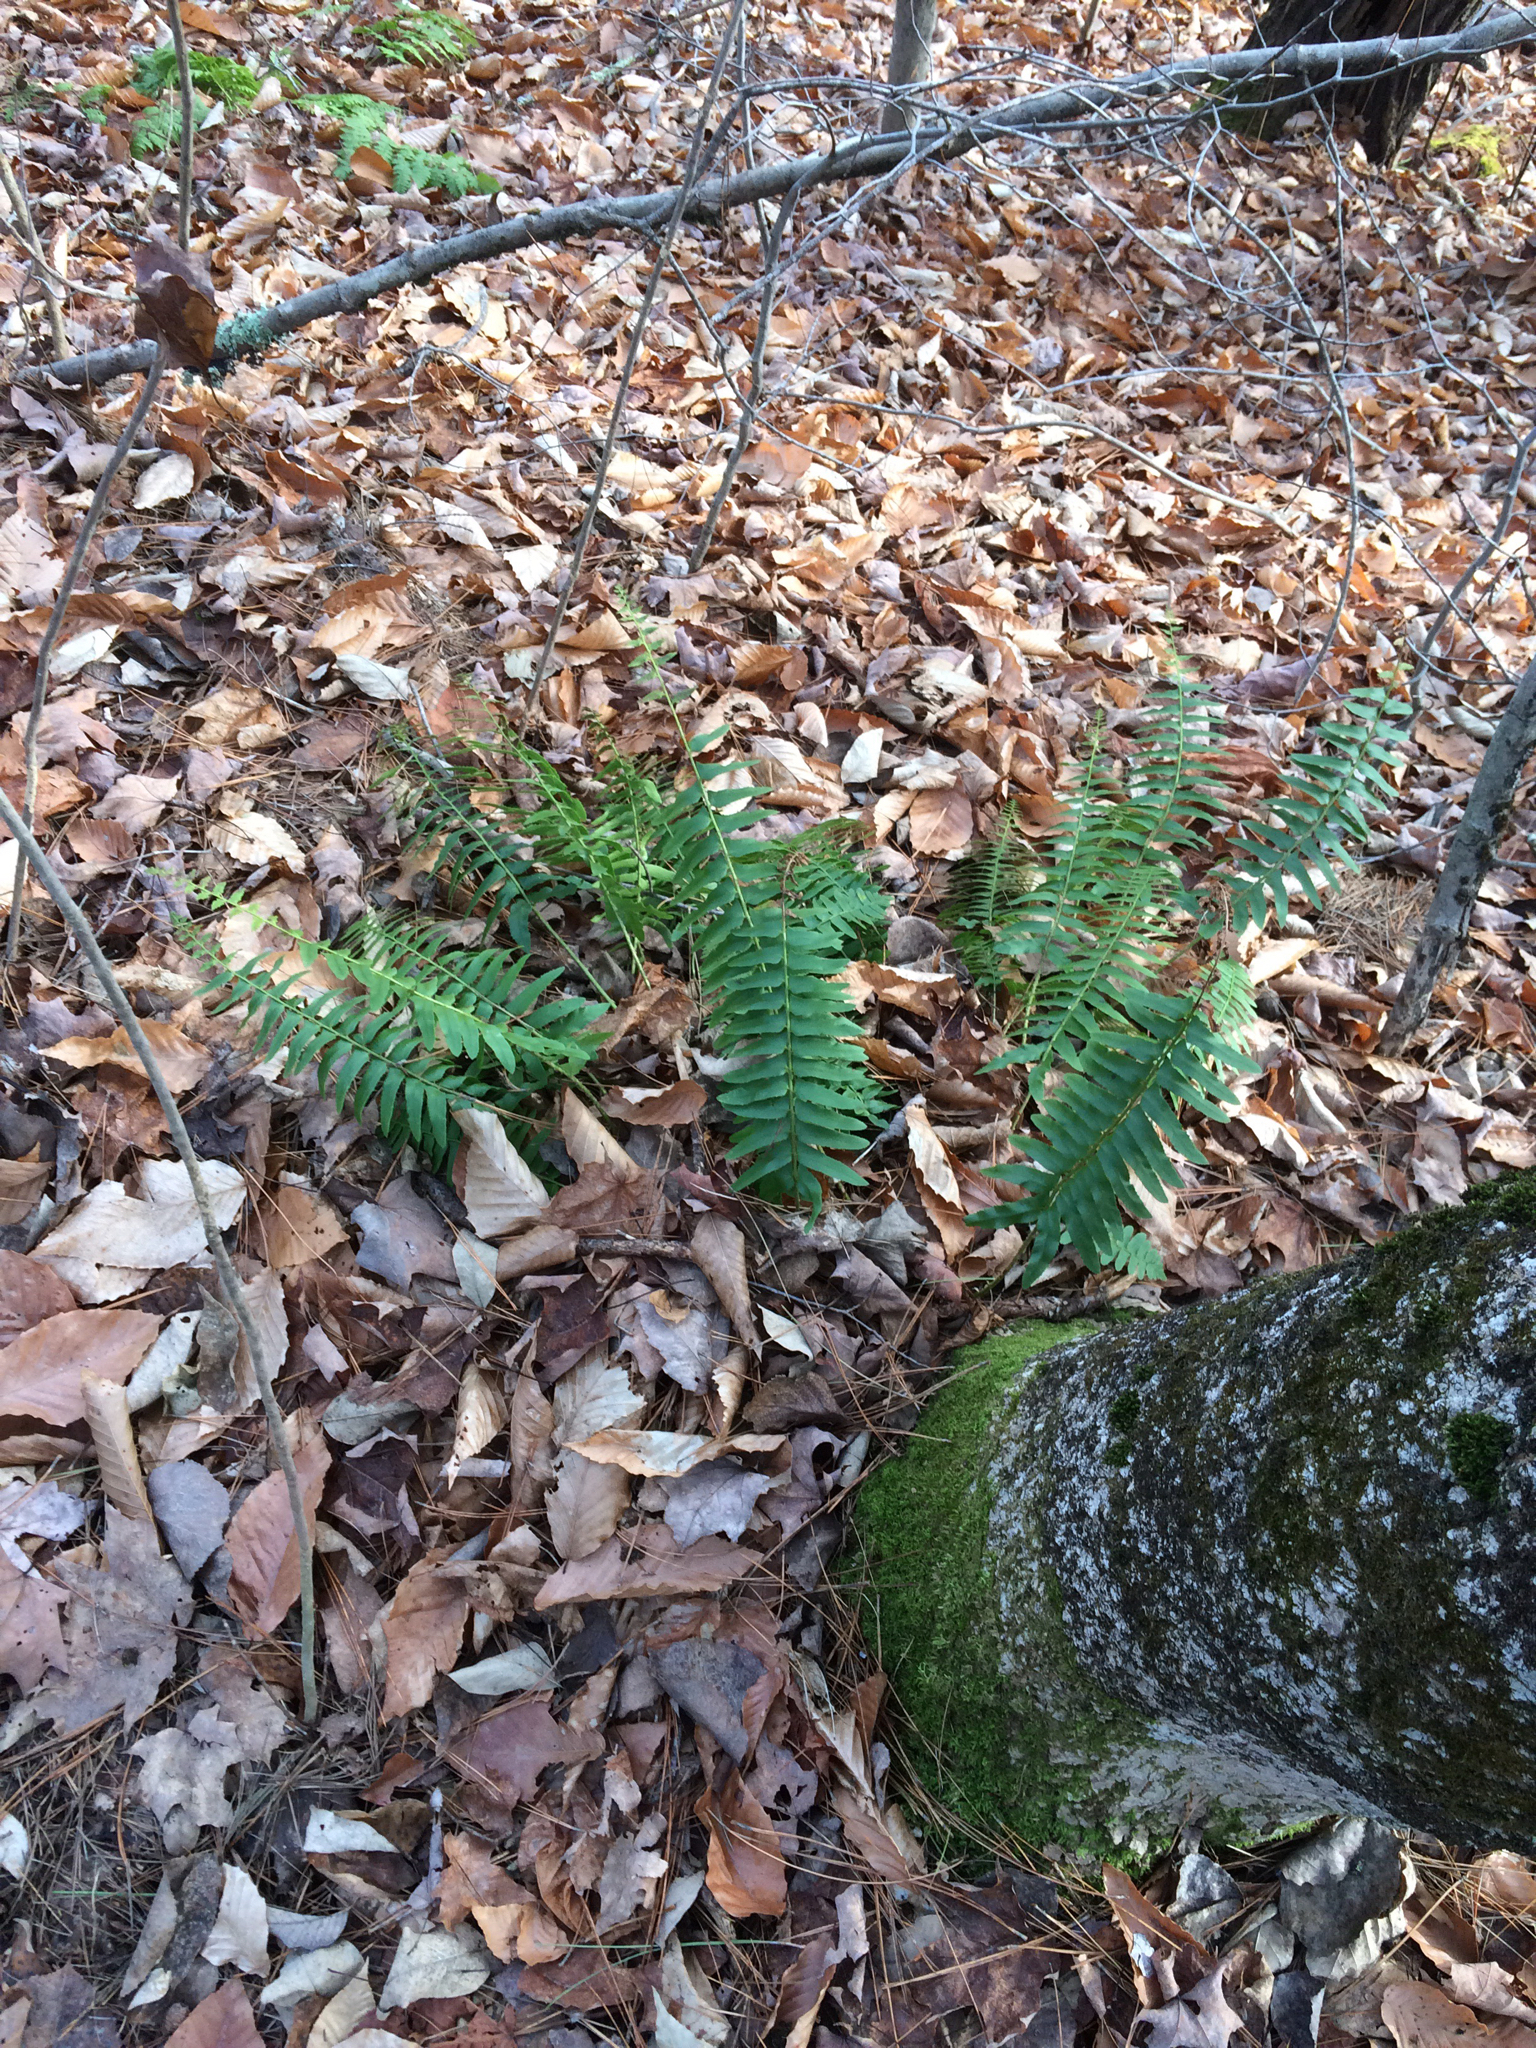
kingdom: Plantae
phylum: Tracheophyta
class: Polypodiopsida
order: Polypodiales
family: Dryopteridaceae
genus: Polystichum
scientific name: Polystichum acrostichoides
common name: Christmas fern
